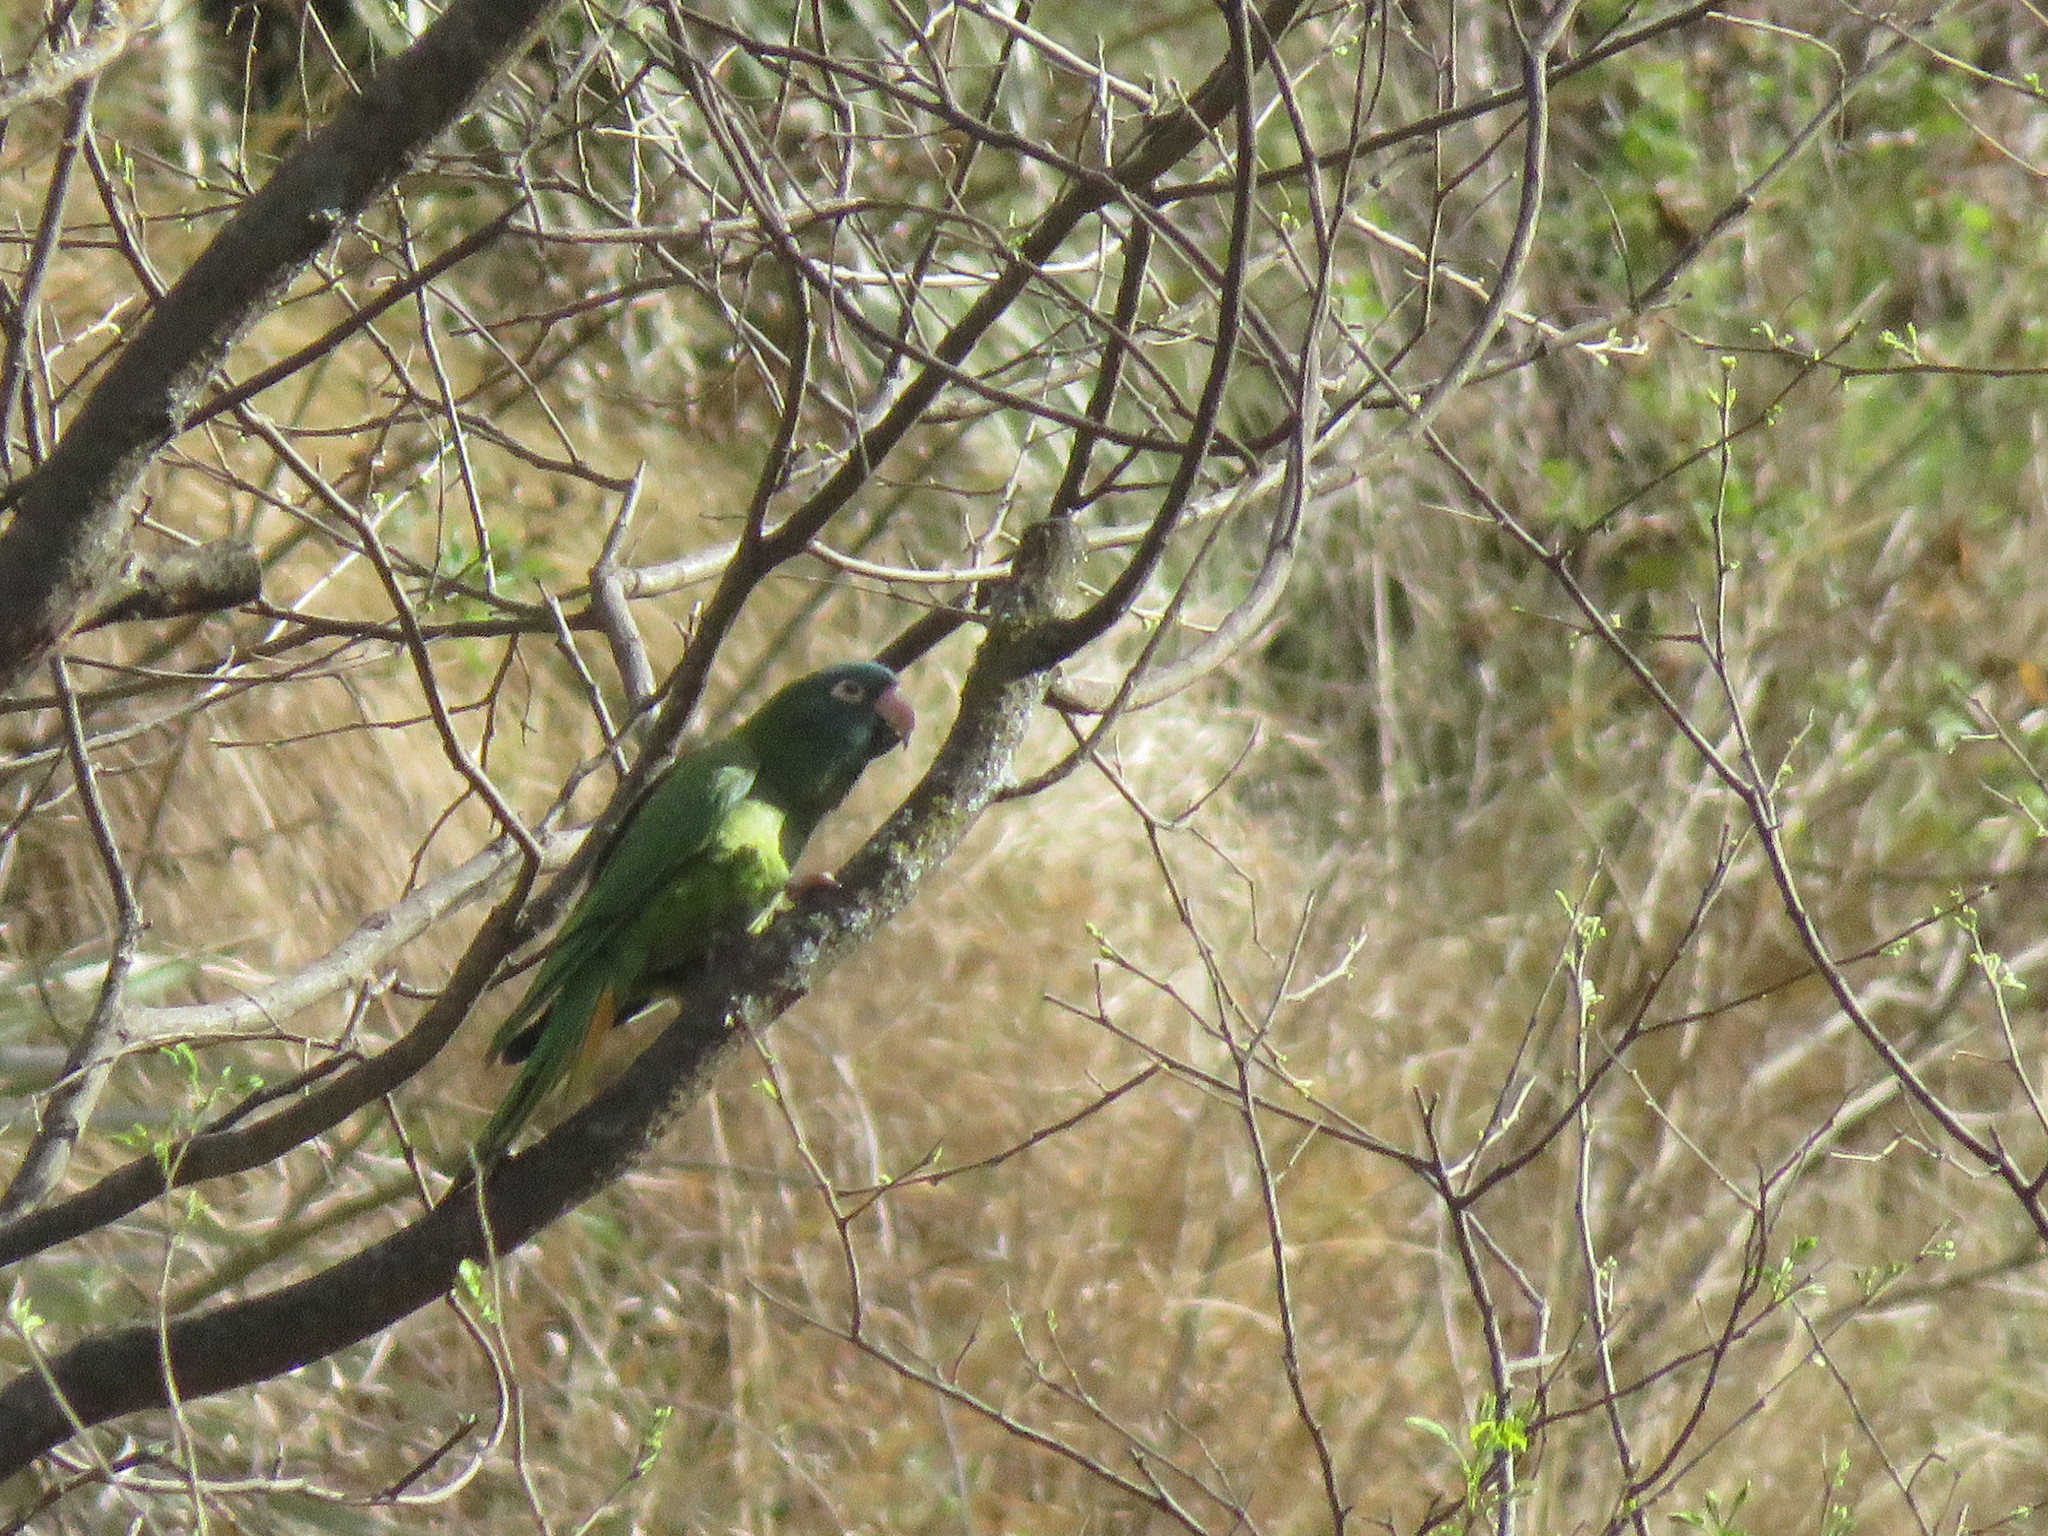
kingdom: Animalia
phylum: Chordata
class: Aves
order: Psittaciformes
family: Psittacidae
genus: Aratinga
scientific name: Aratinga acuticaudata
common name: Blue-crowned parakeet
